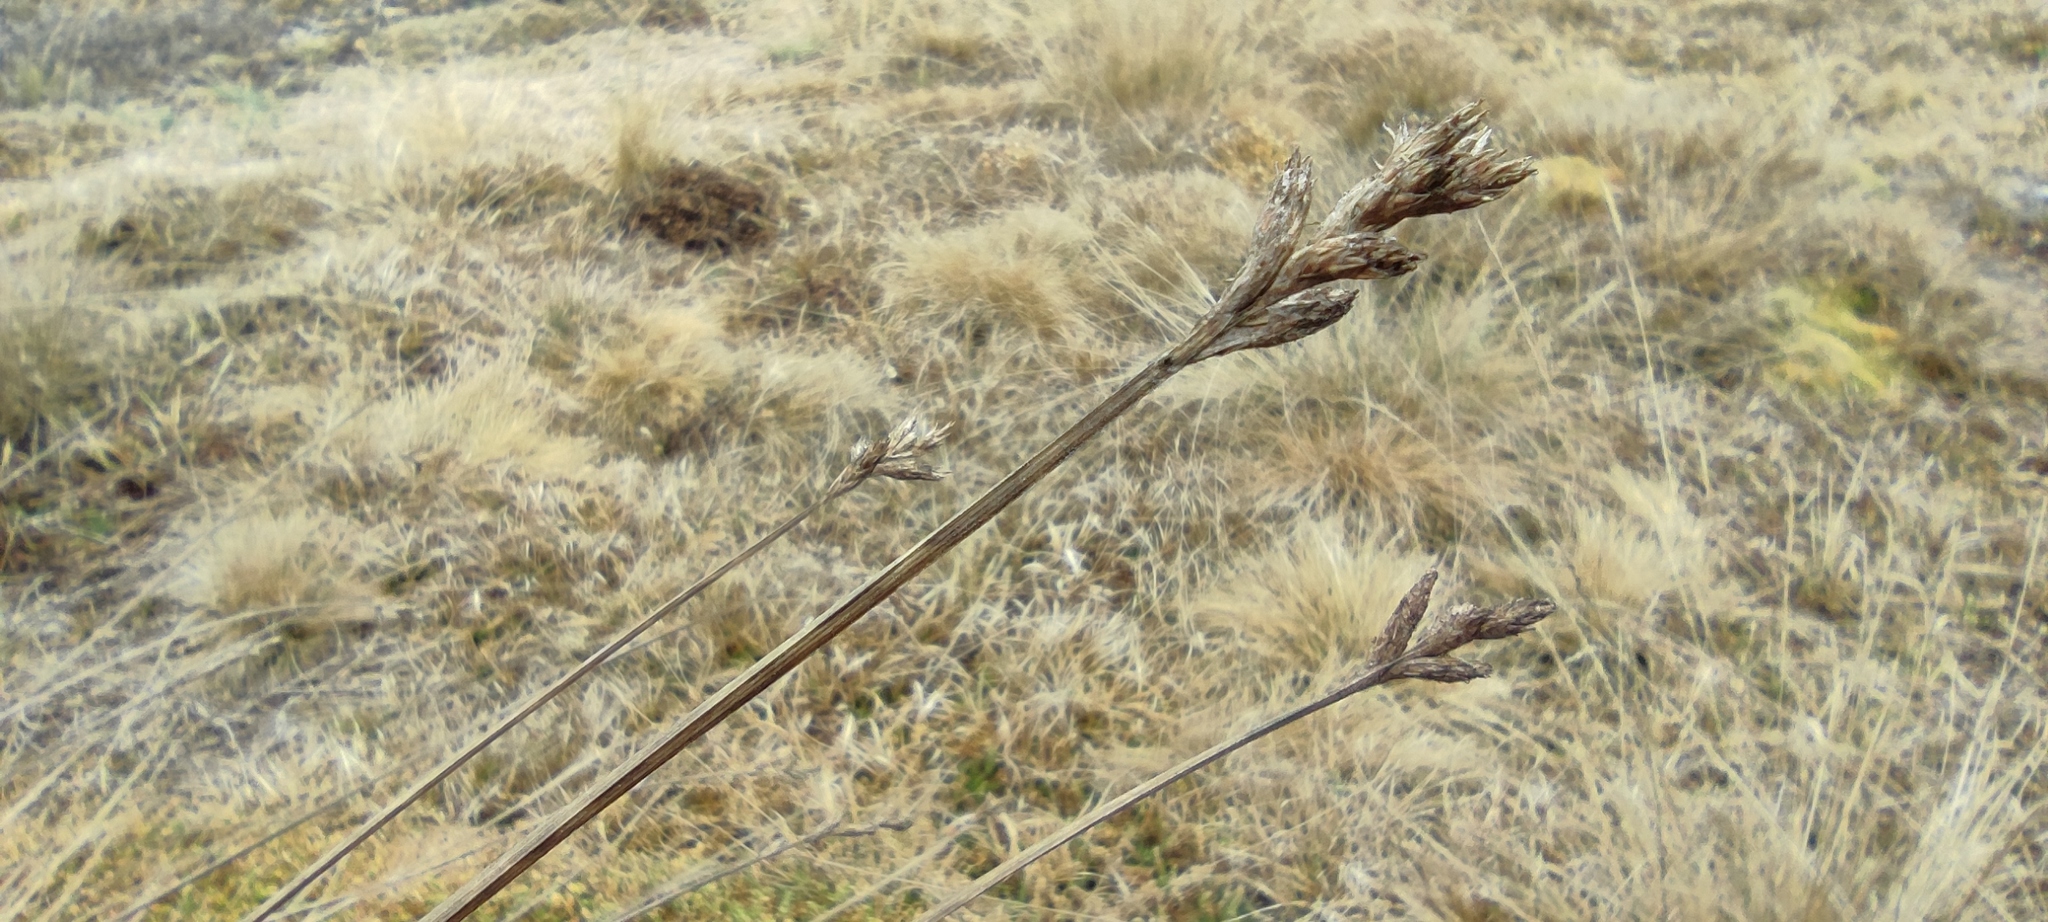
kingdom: Plantae
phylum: Tracheophyta
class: Liliopsida
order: Poales
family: Cyperaceae
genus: Carex
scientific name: Carex bonplandii
